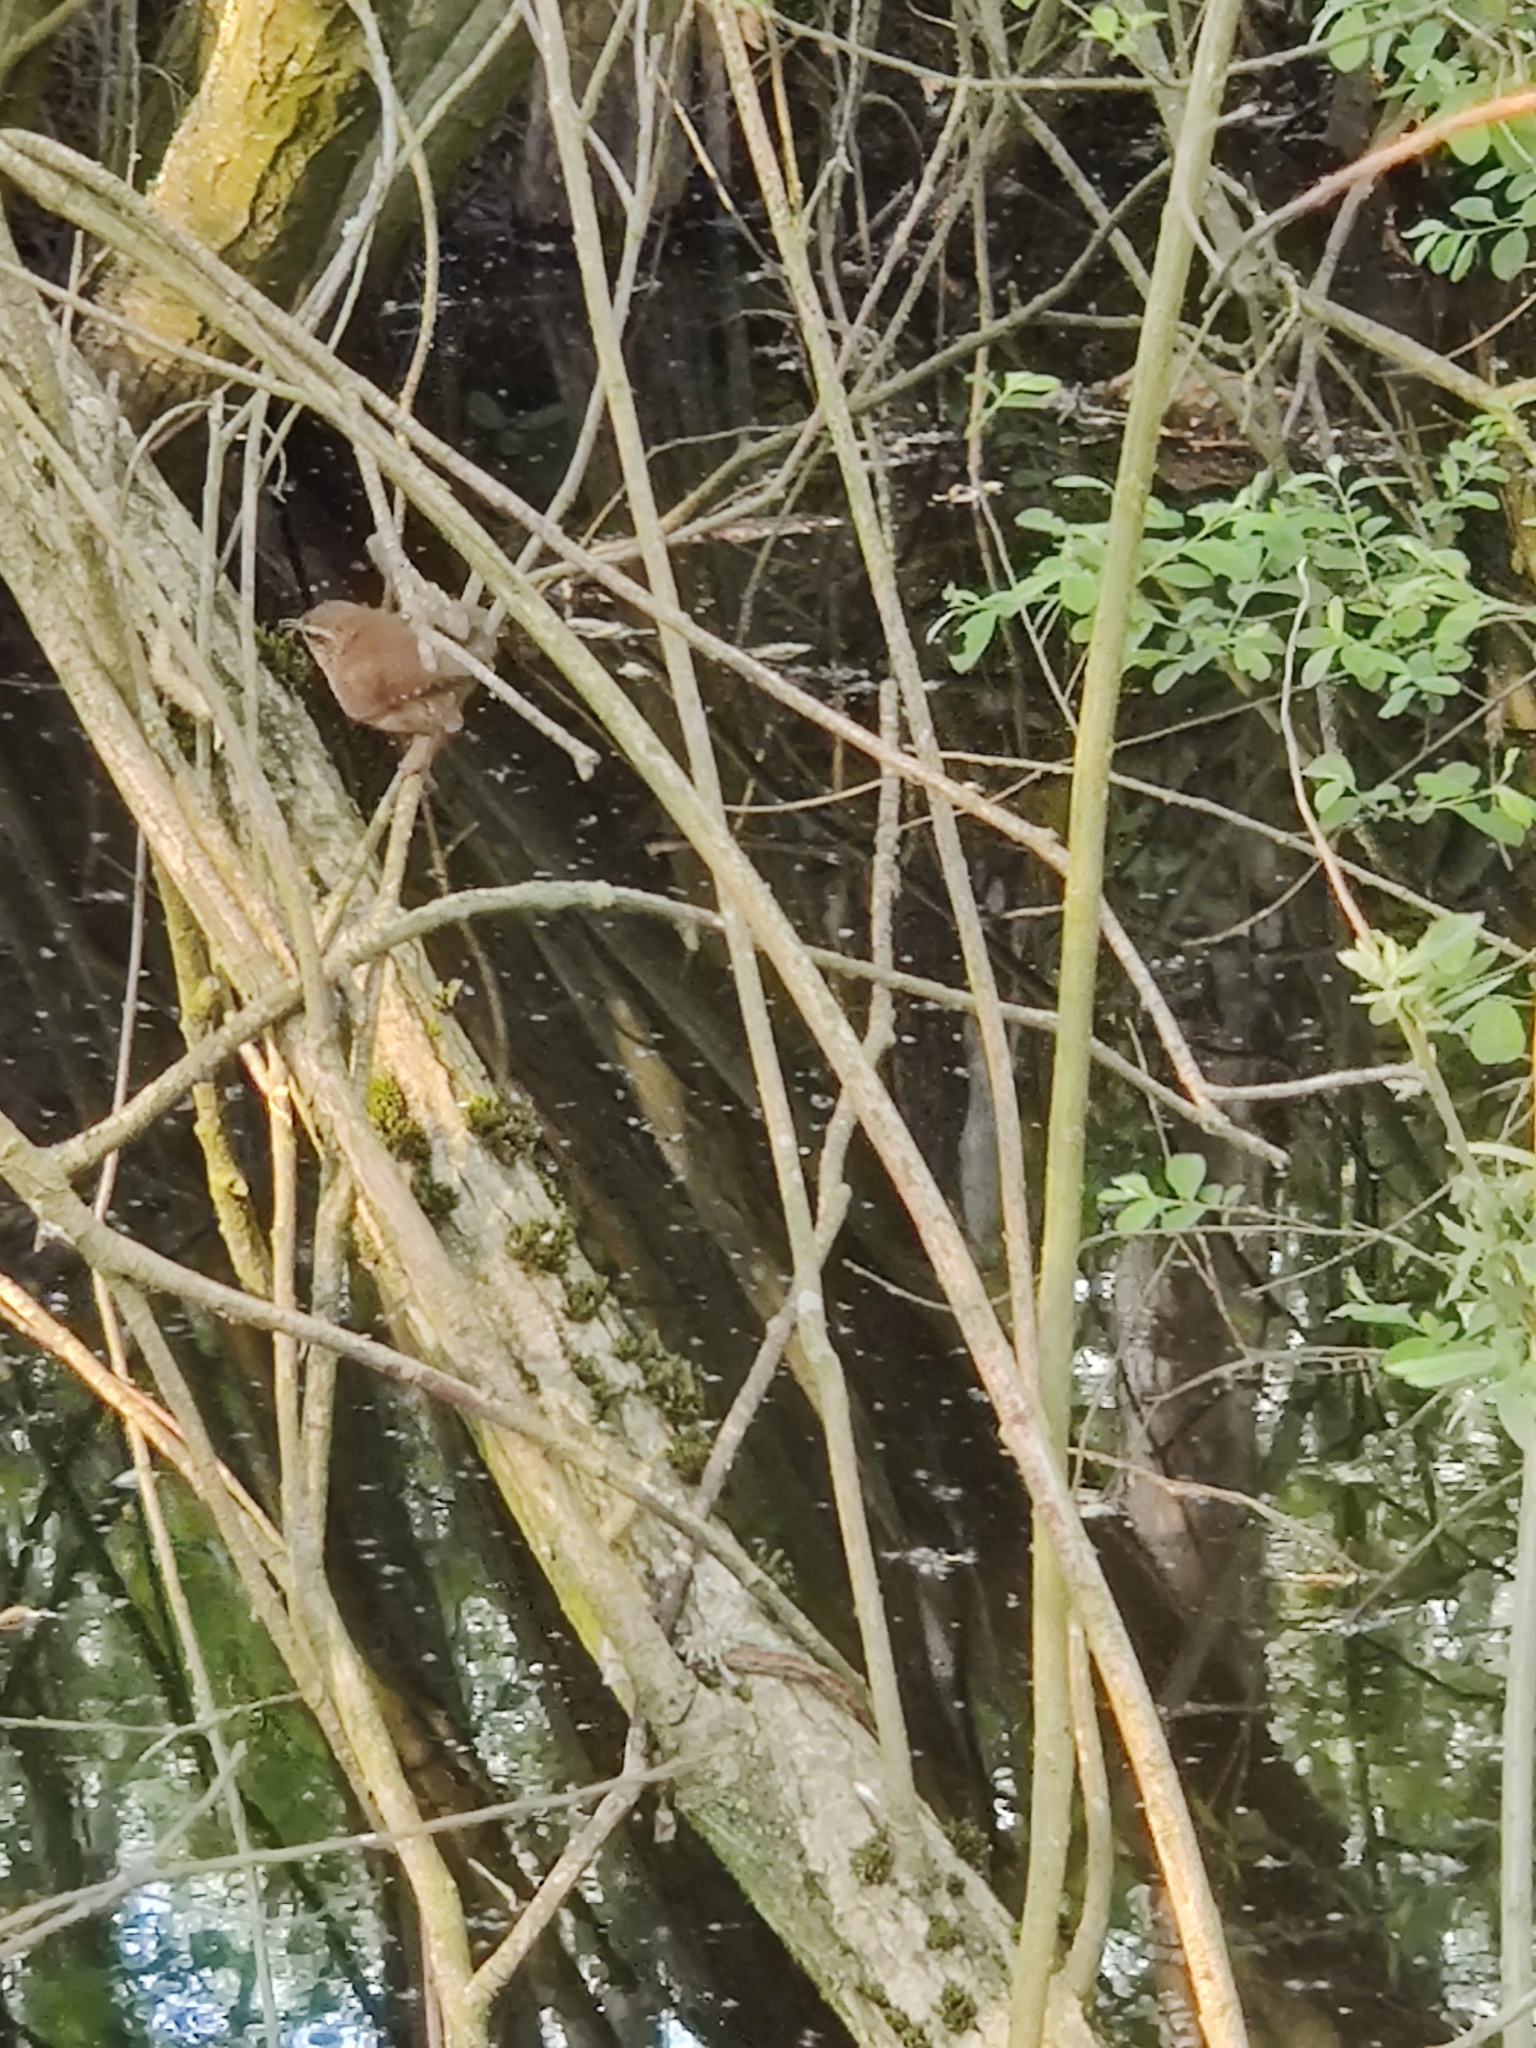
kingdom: Animalia
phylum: Chordata
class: Aves
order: Passeriformes
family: Troglodytidae
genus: Troglodytes
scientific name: Troglodytes troglodytes
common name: Eurasian wren
